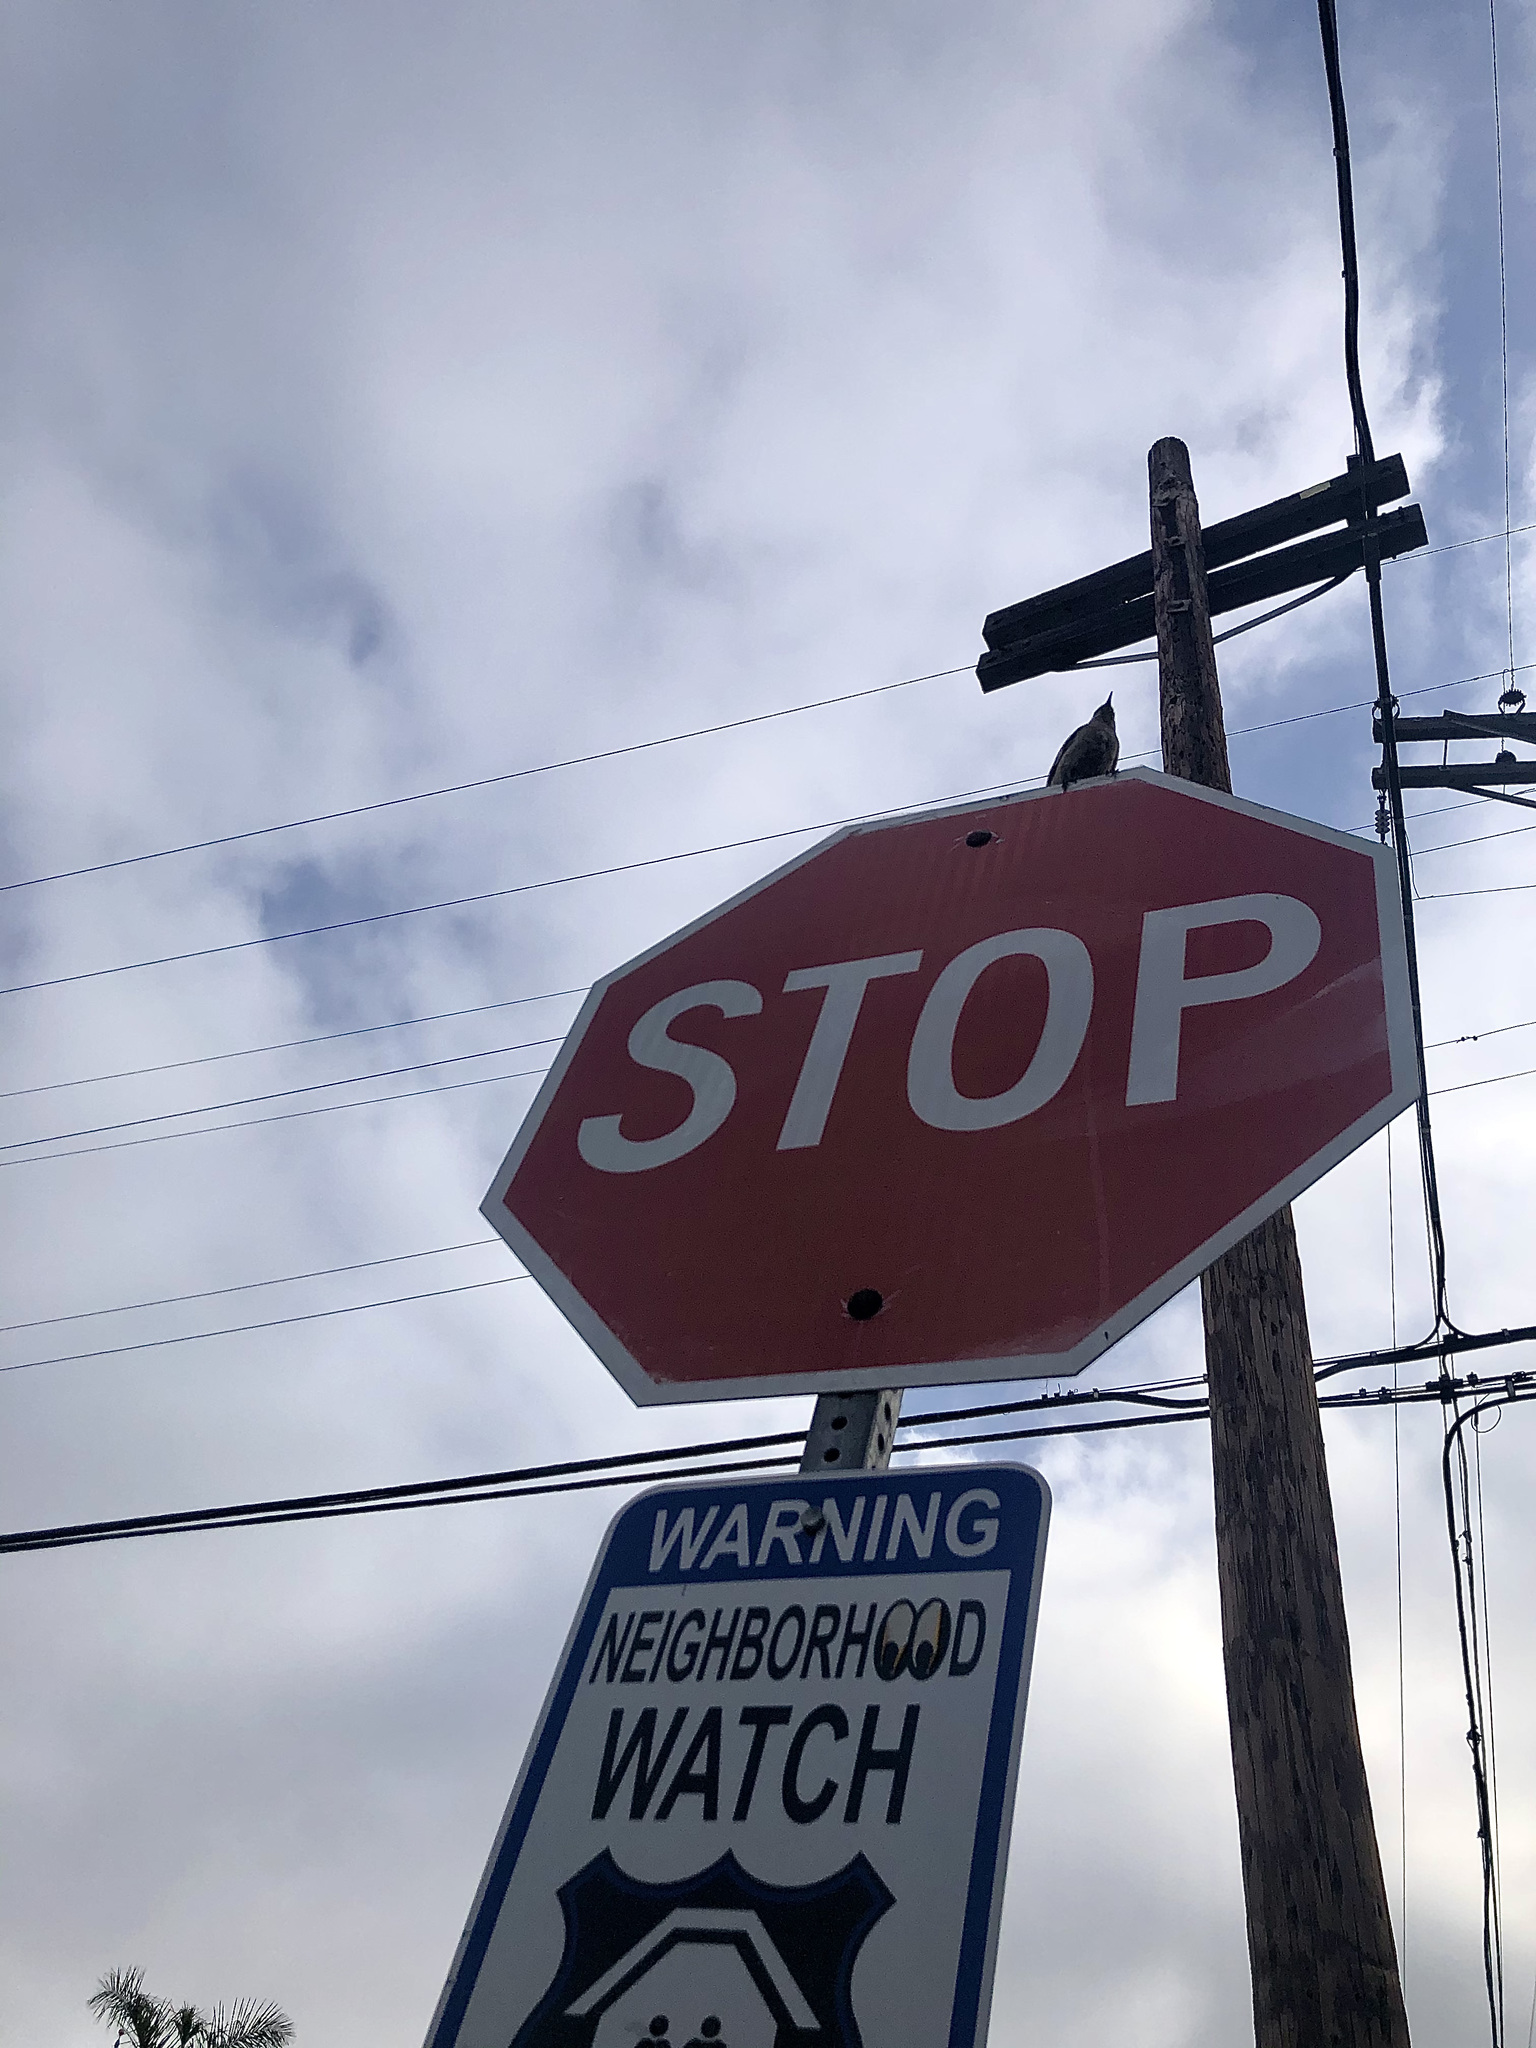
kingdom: Animalia
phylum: Chordata
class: Aves
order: Passeriformes
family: Mimidae
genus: Mimus
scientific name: Mimus polyglottos
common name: Northern mockingbird
